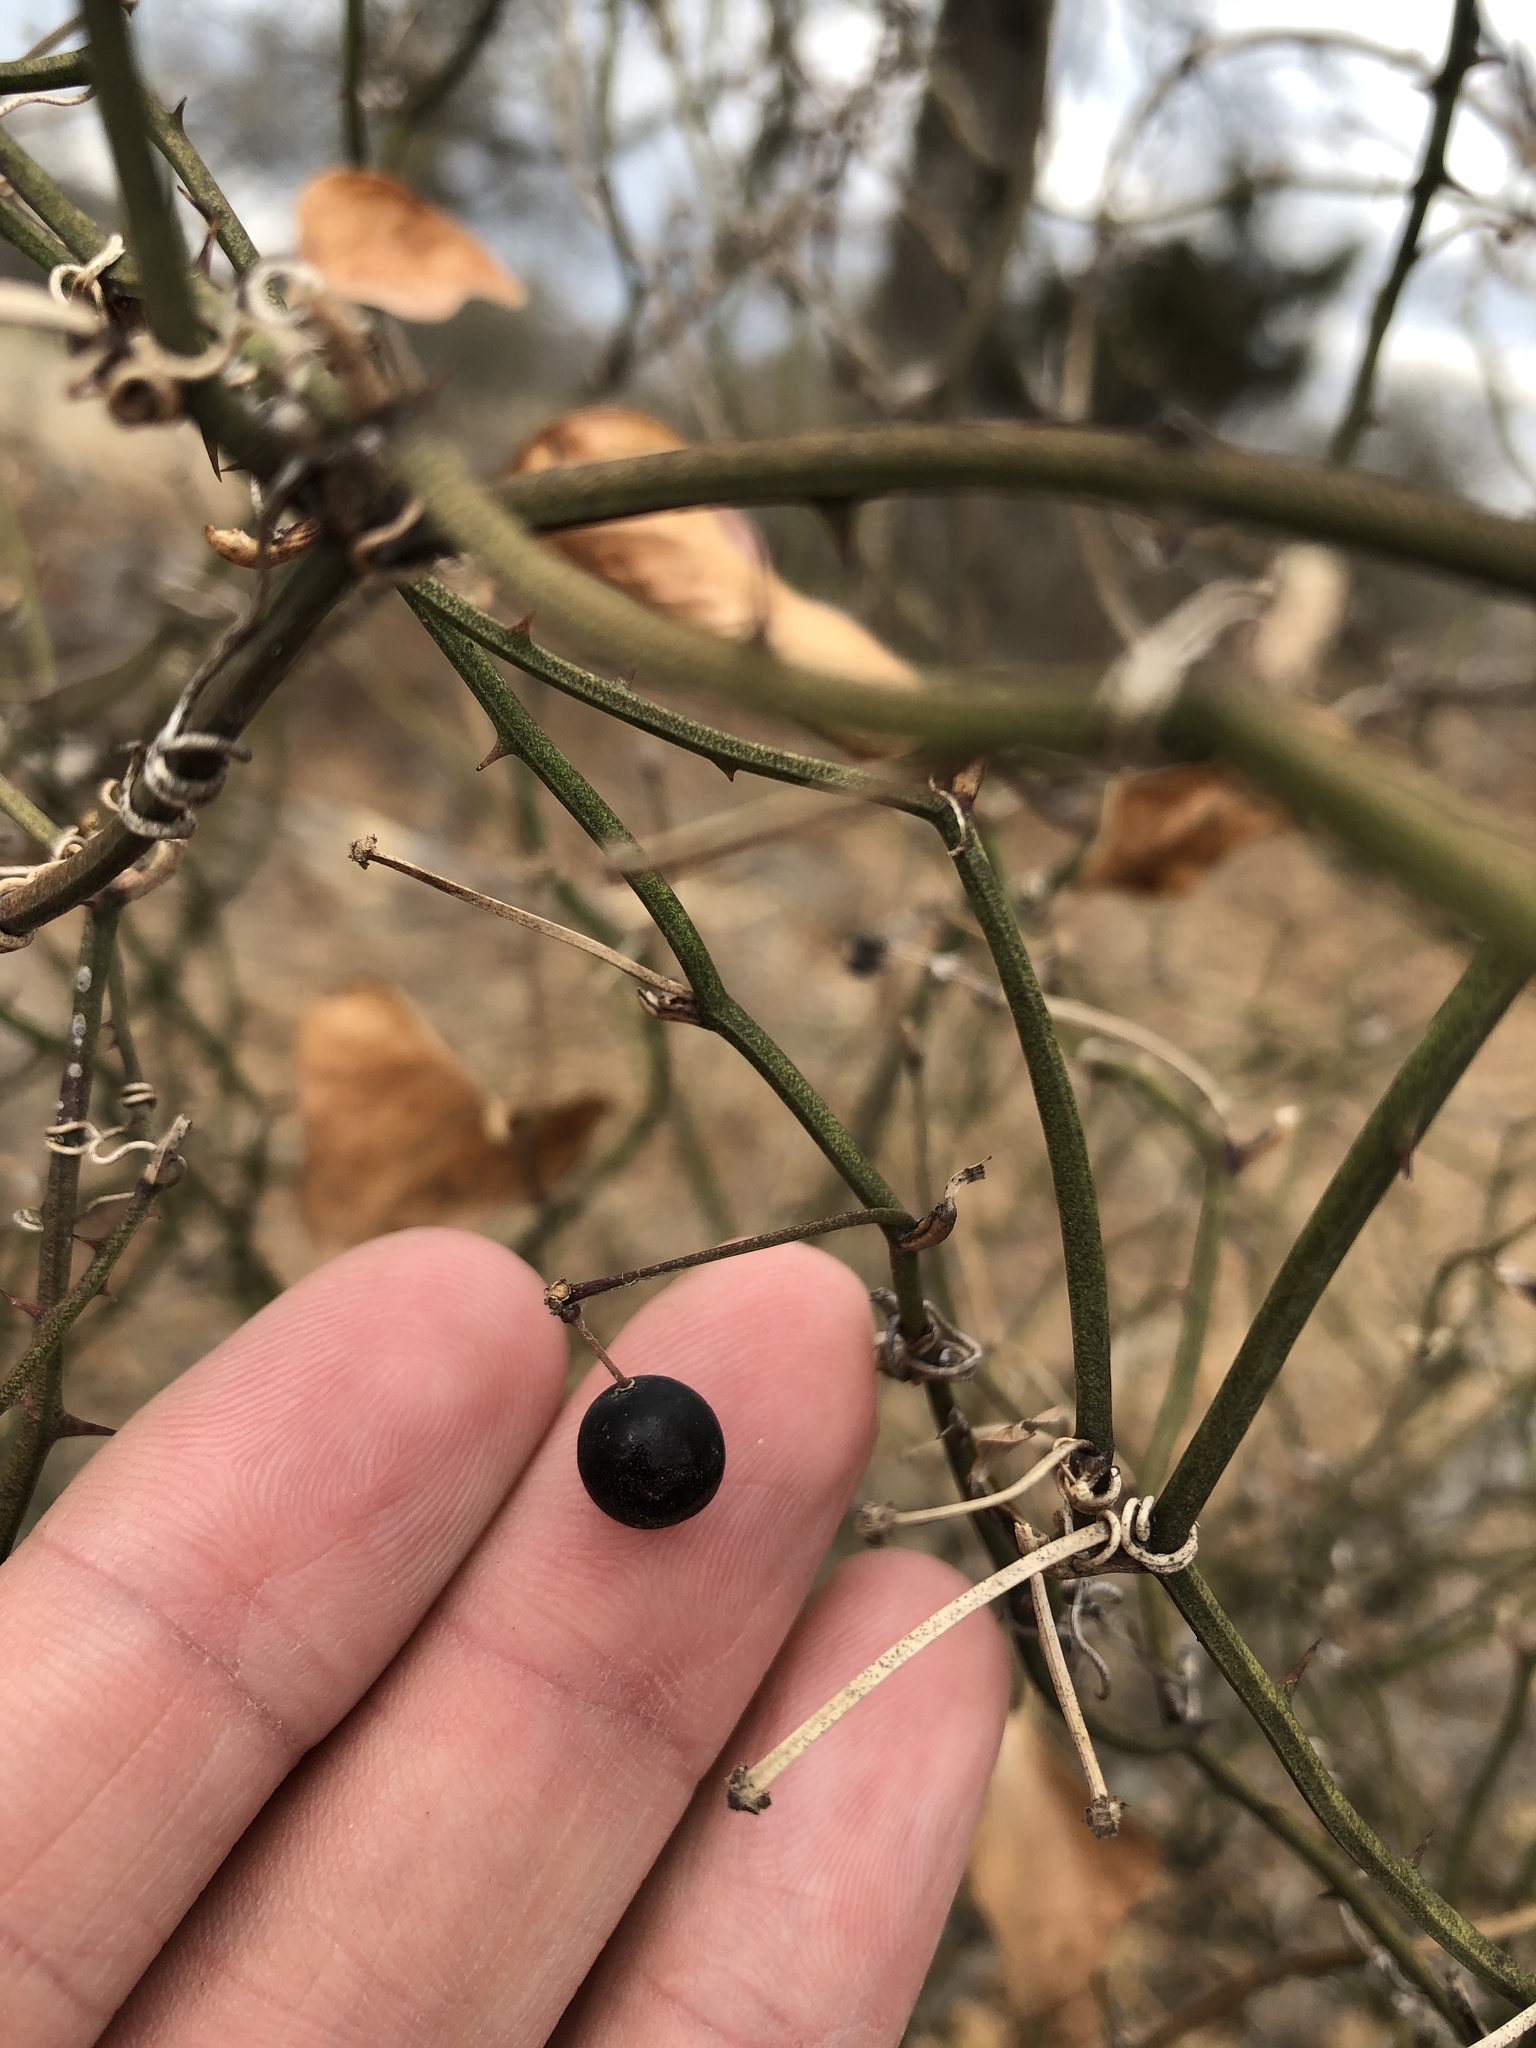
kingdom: Plantae
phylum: Tracheophyta
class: Liliopsida
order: Liliales
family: Smilacaceae
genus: Smilax
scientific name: Smilax bona-nox
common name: Catbrier
